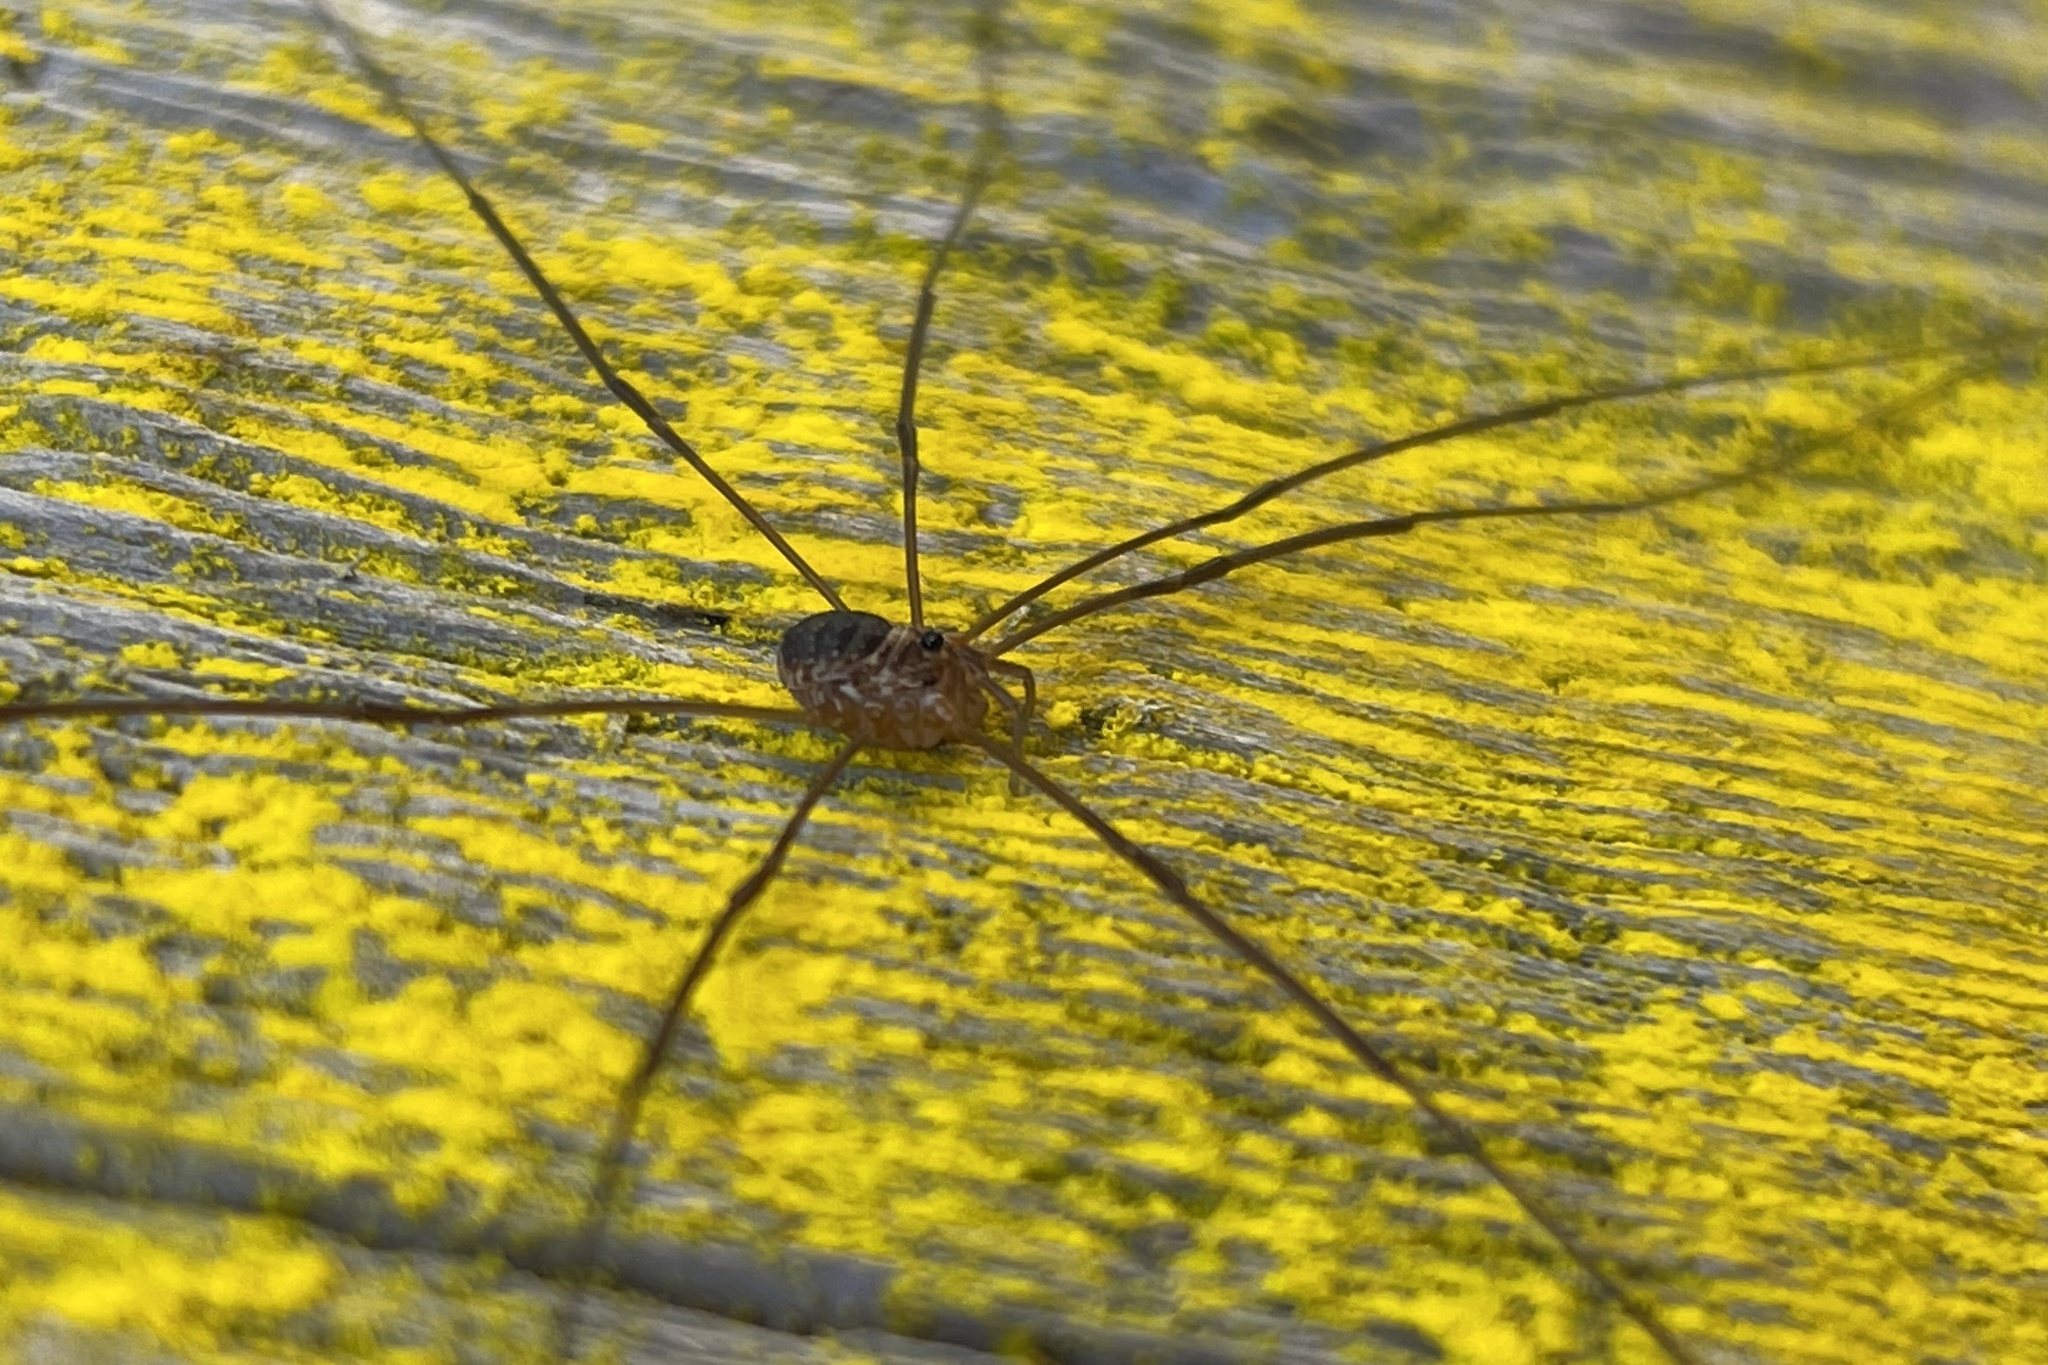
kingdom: Animalia
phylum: Arthropoda
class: Arachnida
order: Opiliones
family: Phalangiidae
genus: Amilenus
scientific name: Amilenus aurantiacus
